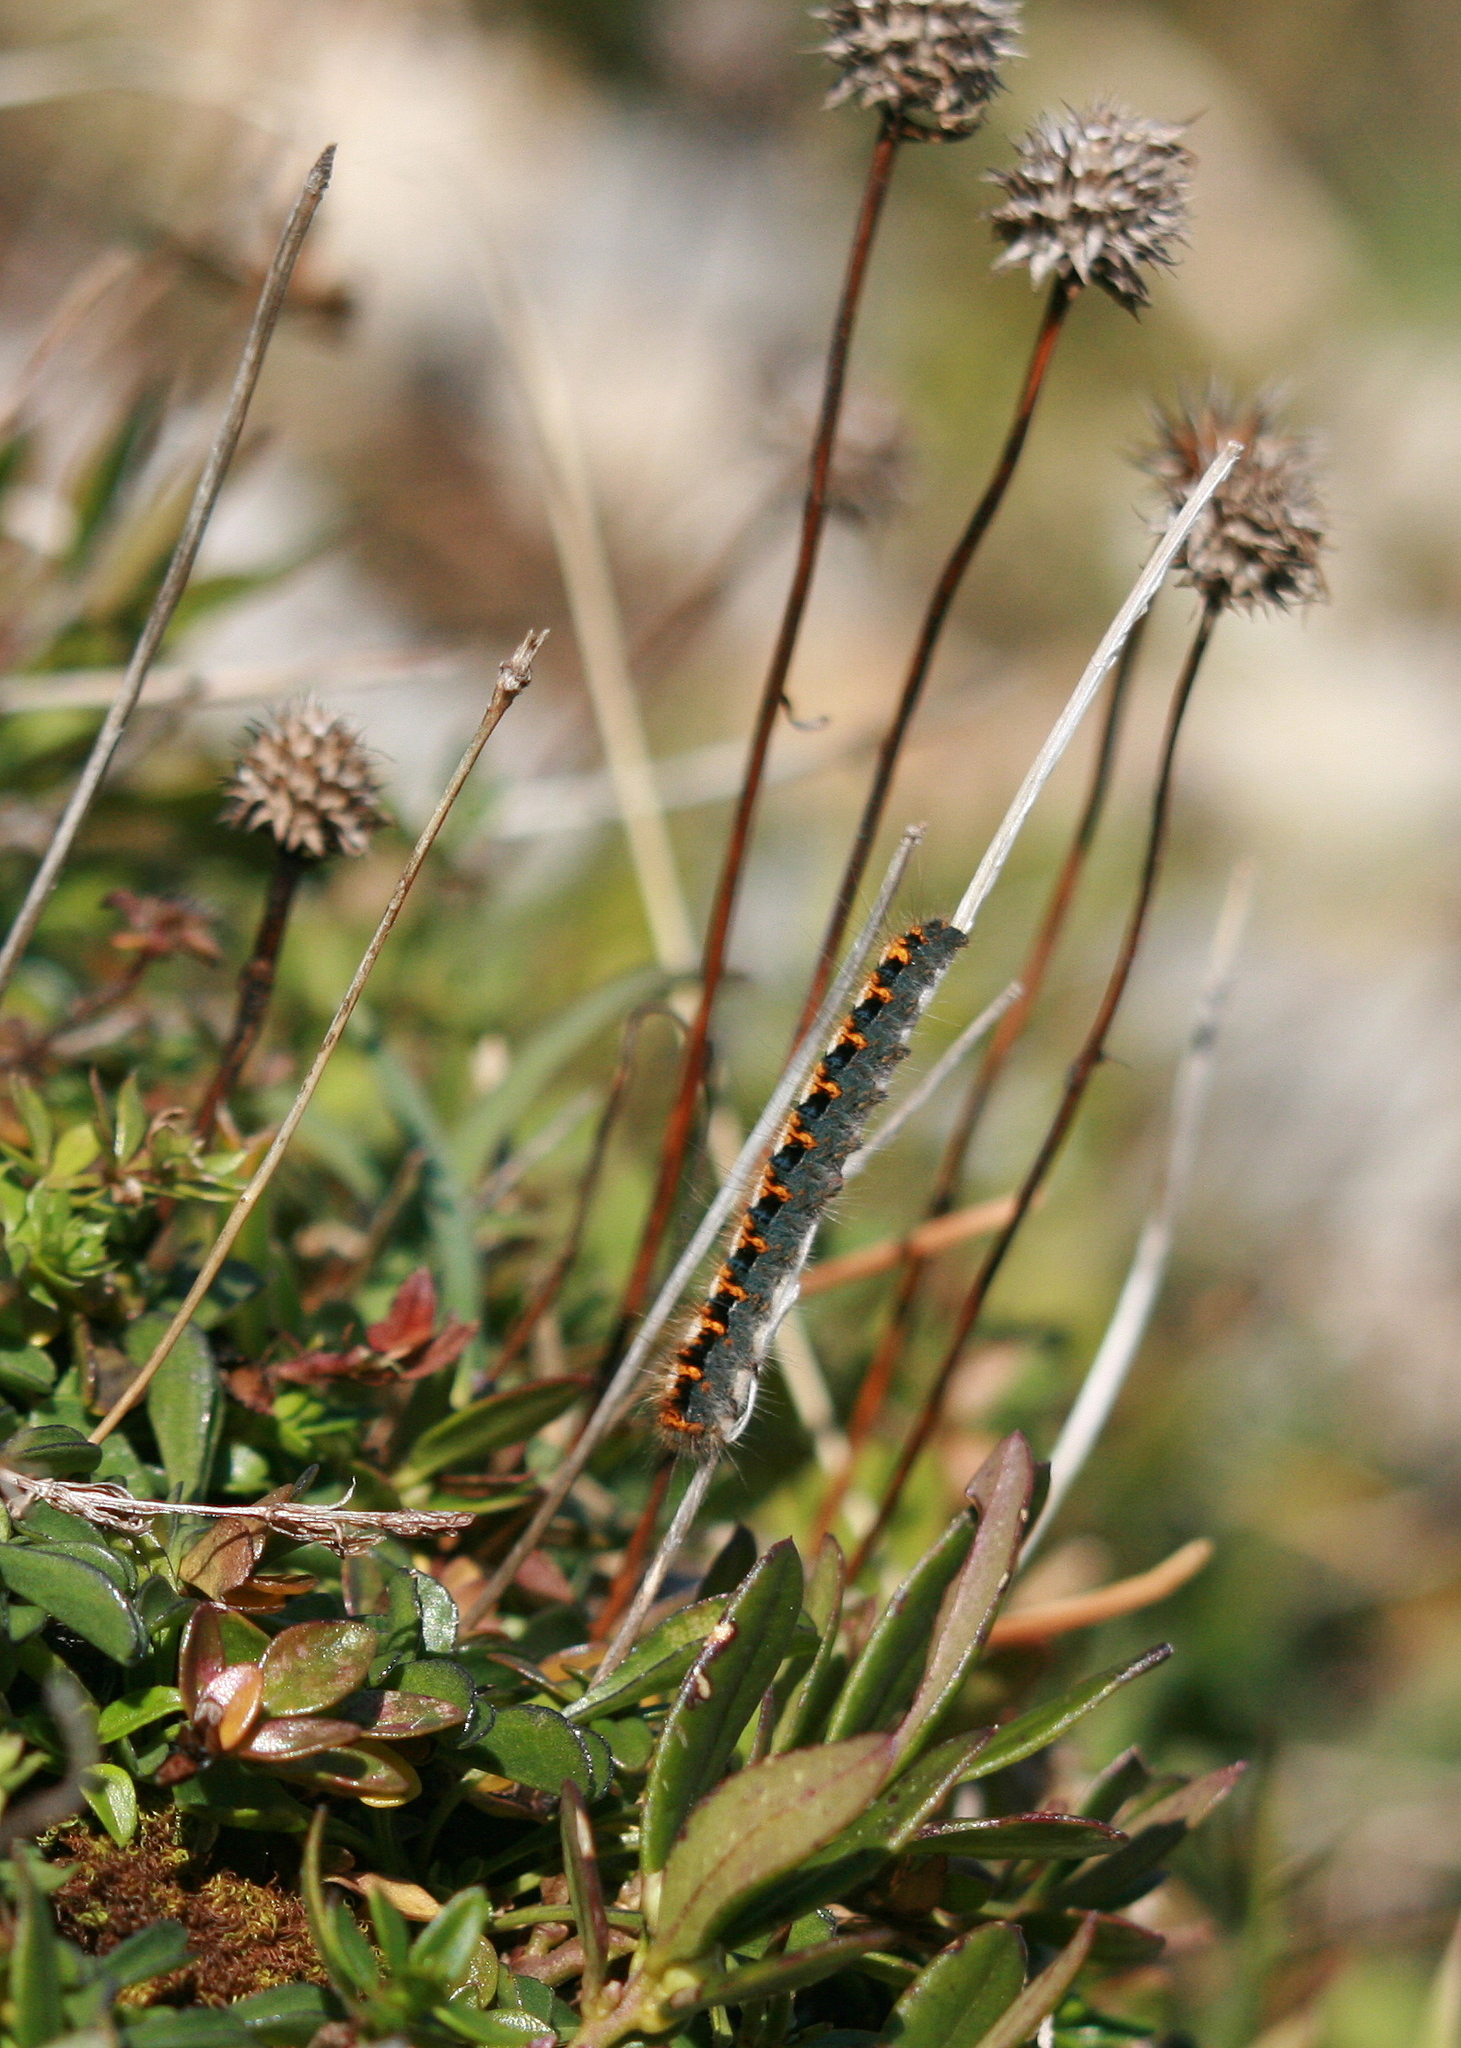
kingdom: Animalia
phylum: Arthropoda
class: Insecta
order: Lepidoptera
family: Lasiocampidae
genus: Lasiocampa
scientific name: Lasiocampa quercus
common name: Oak eggar
